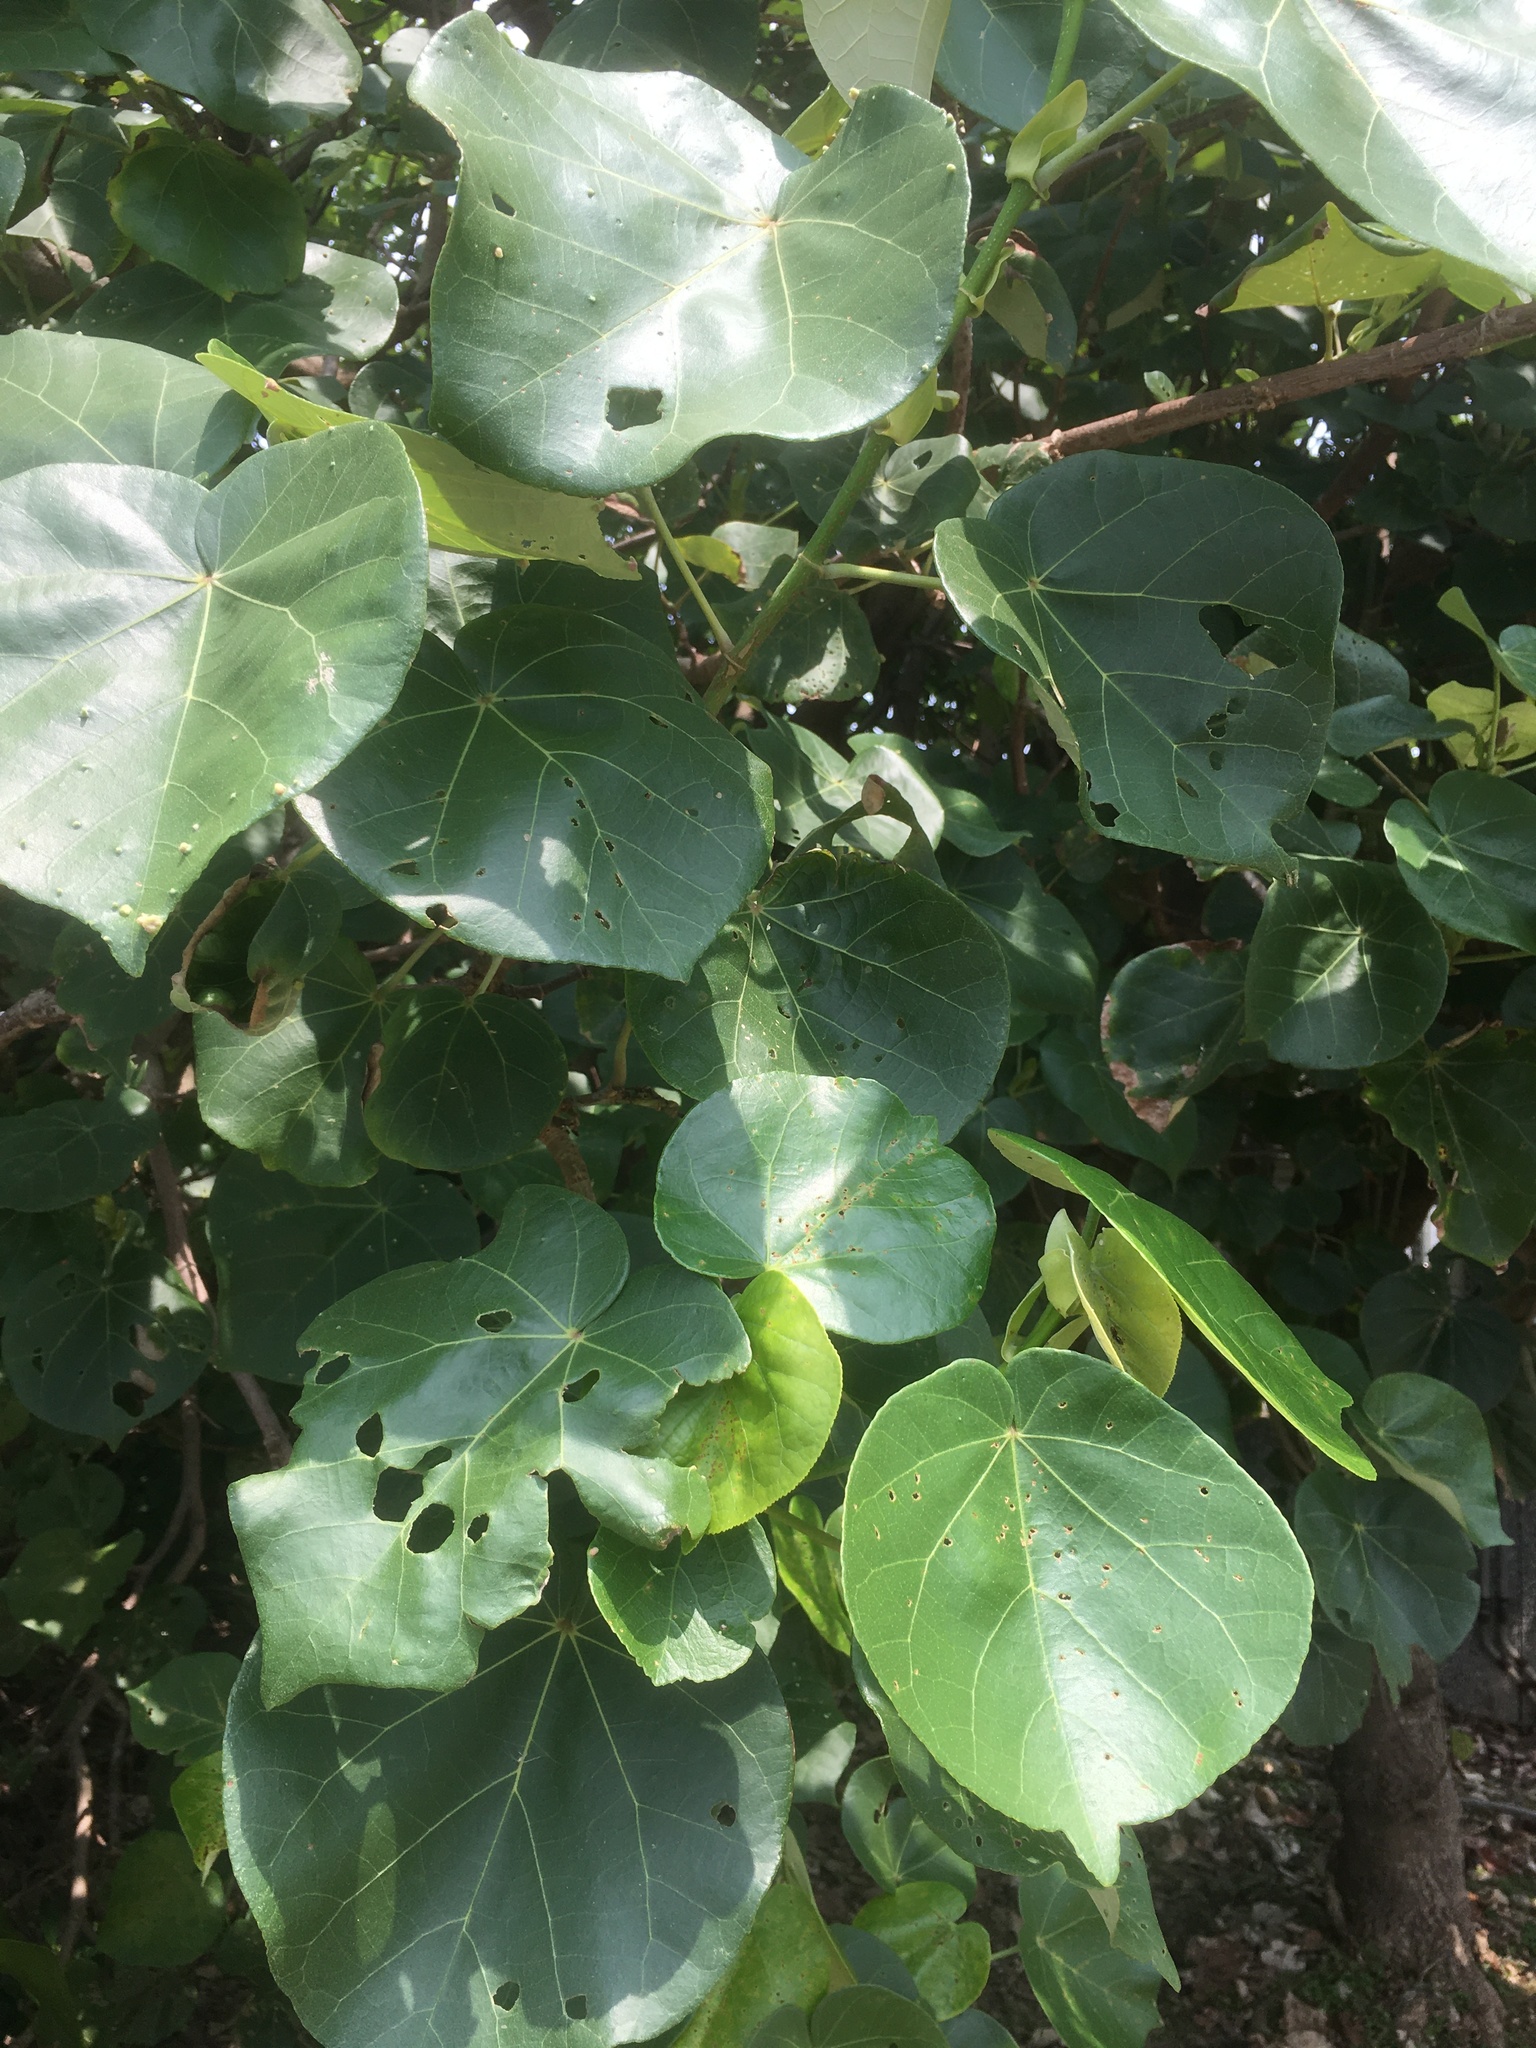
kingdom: Plantae
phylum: Tracheophyta
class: Magnoliopsida
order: Malvales
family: Malvaceae
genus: Talipariti
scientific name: Talipariti tiliaceum
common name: Sea hibiscus
